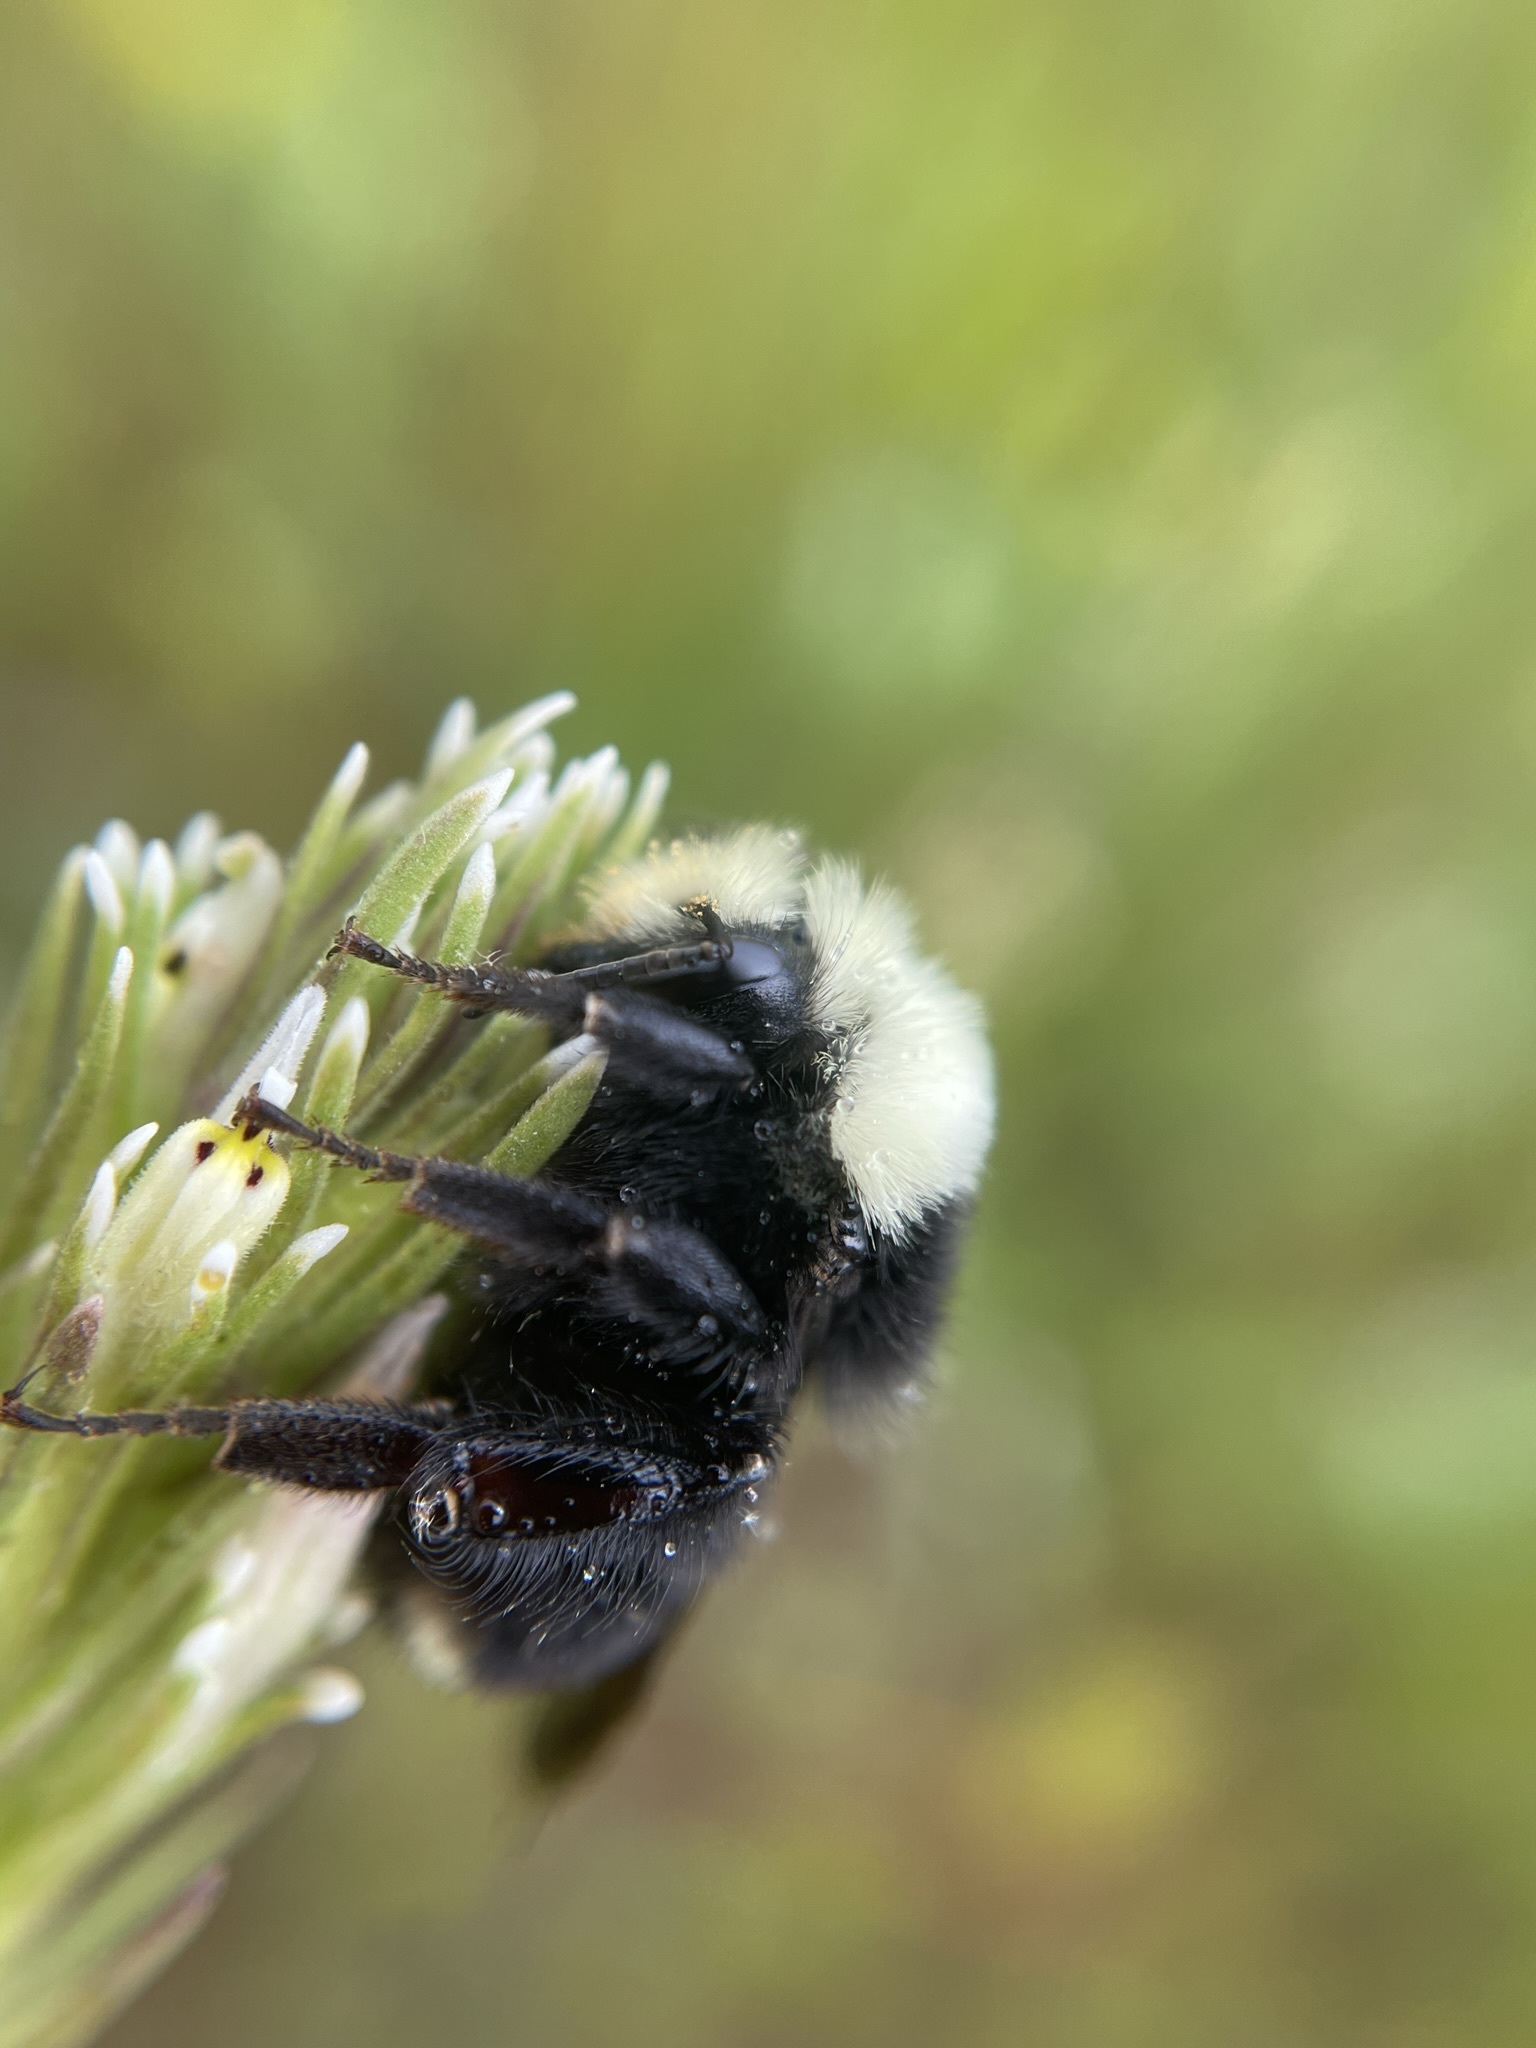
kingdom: Animalia
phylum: Arthropoda
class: Insecta
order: Hymenoptera
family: Apidae
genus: Bombus
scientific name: Bombus vosnesenskii
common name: Vosnesensky bumble bee
